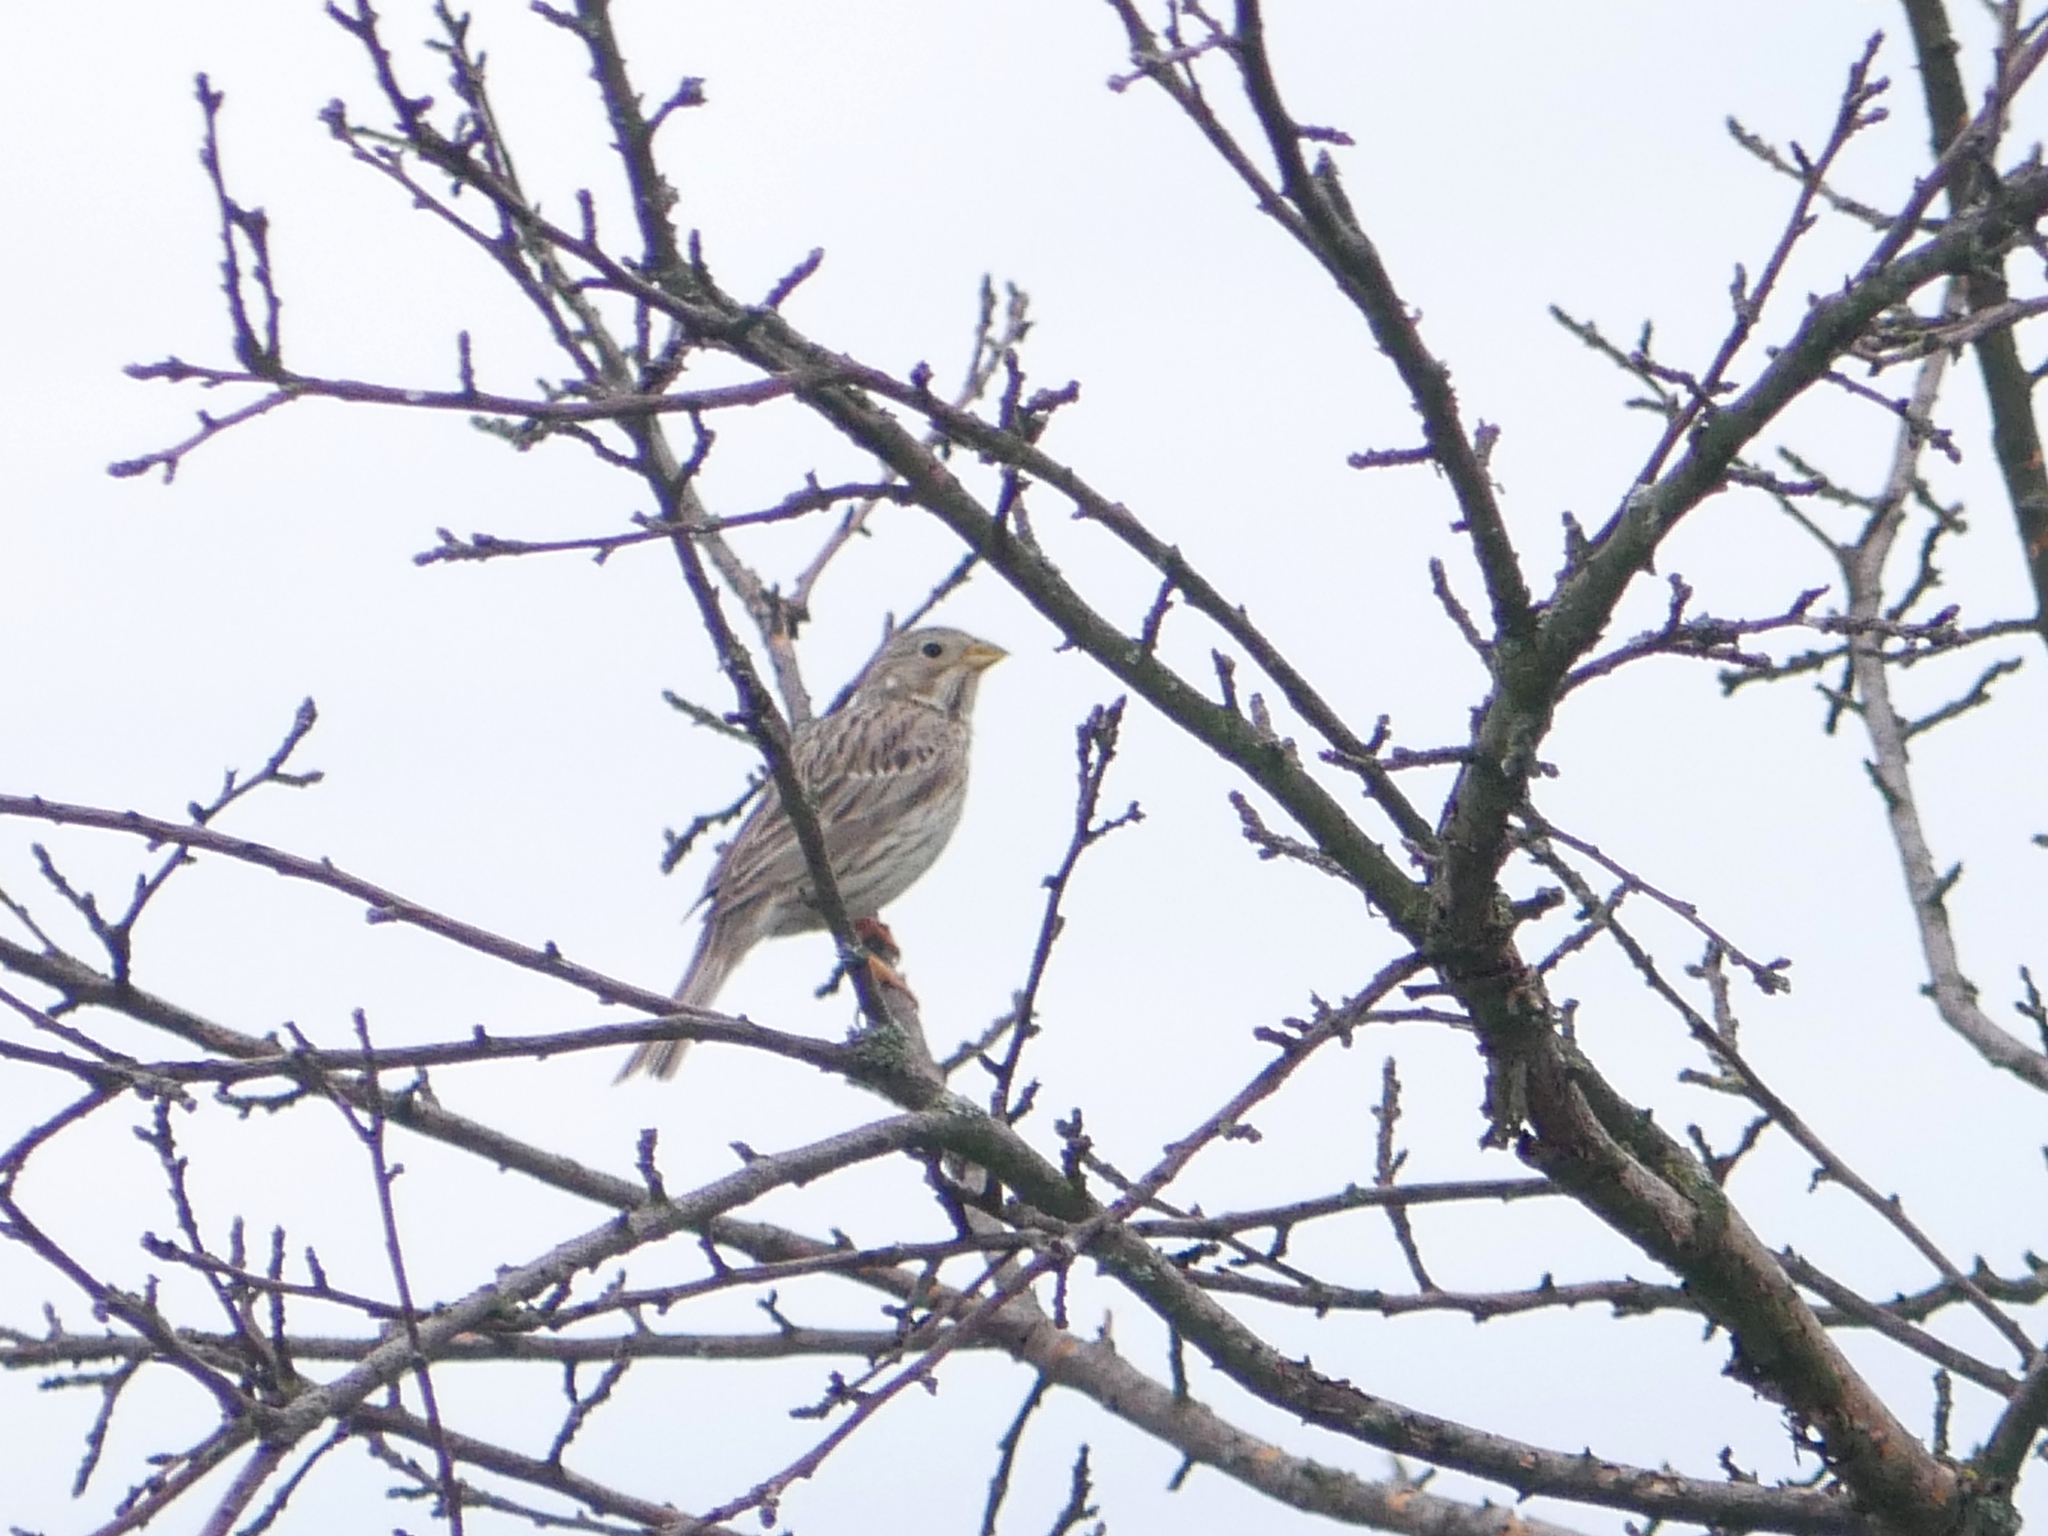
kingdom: Animalia
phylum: Chordata
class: Aves
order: Passeriformes
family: Emberizidae
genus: Emberiza
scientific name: Emberiza calandra
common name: Corn bunting
